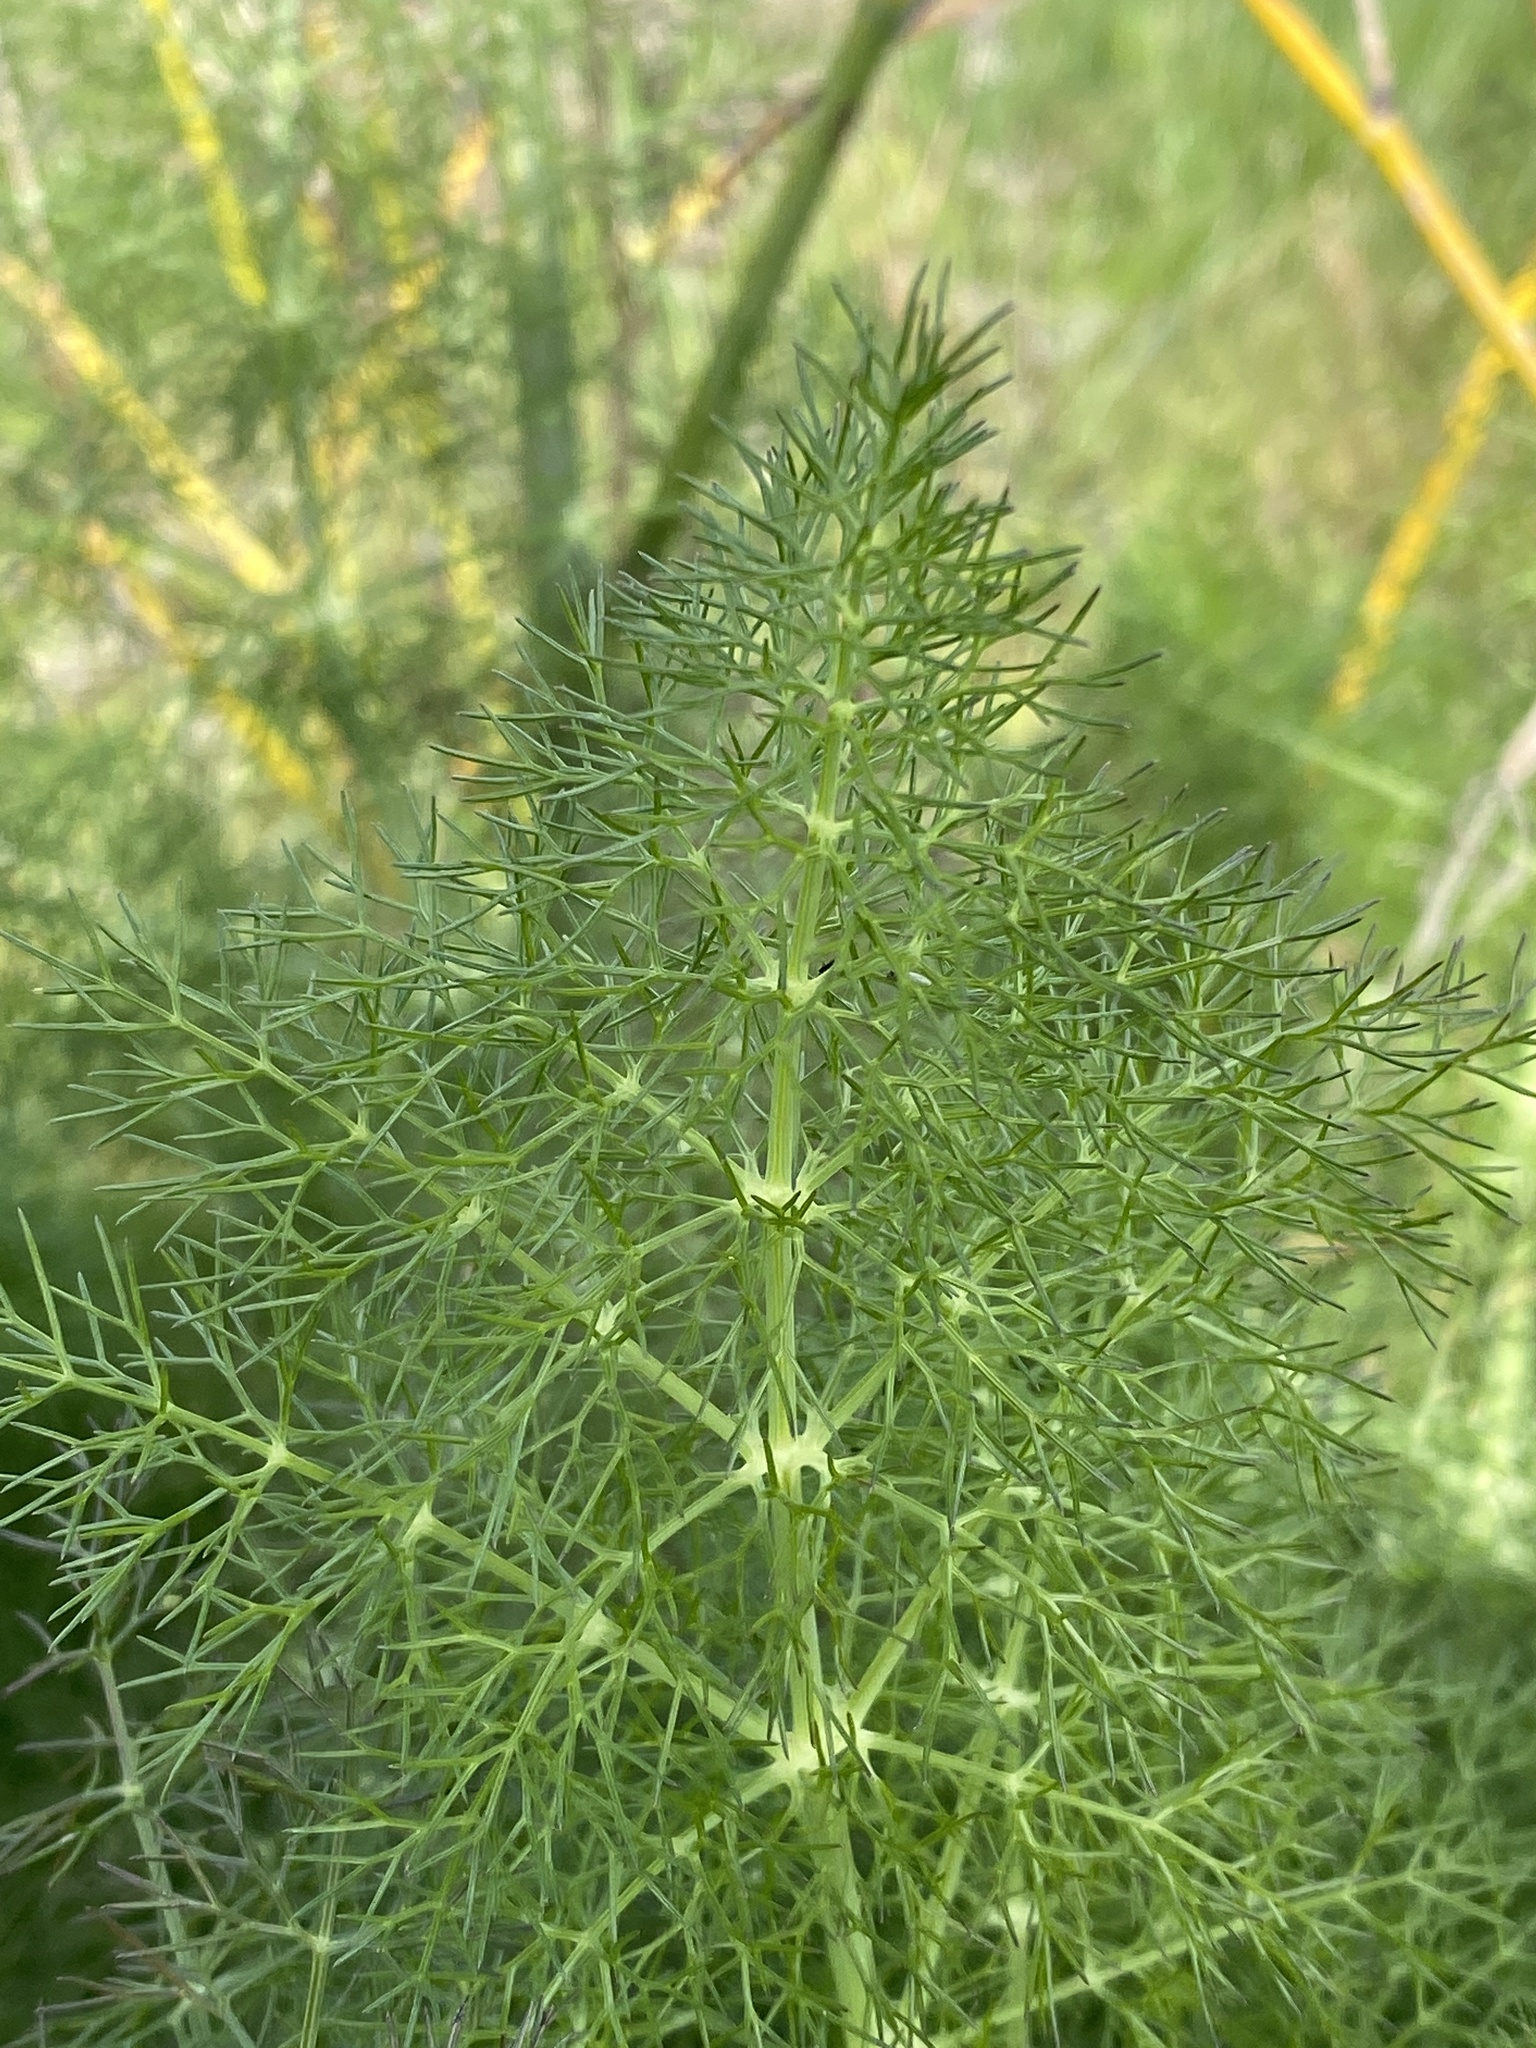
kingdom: Plantae
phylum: Tracheophyta
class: Magnoliopsida
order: Apiales
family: Apiaceae
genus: Foeniculum
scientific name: Foeniculum vulgare
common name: Fennel
